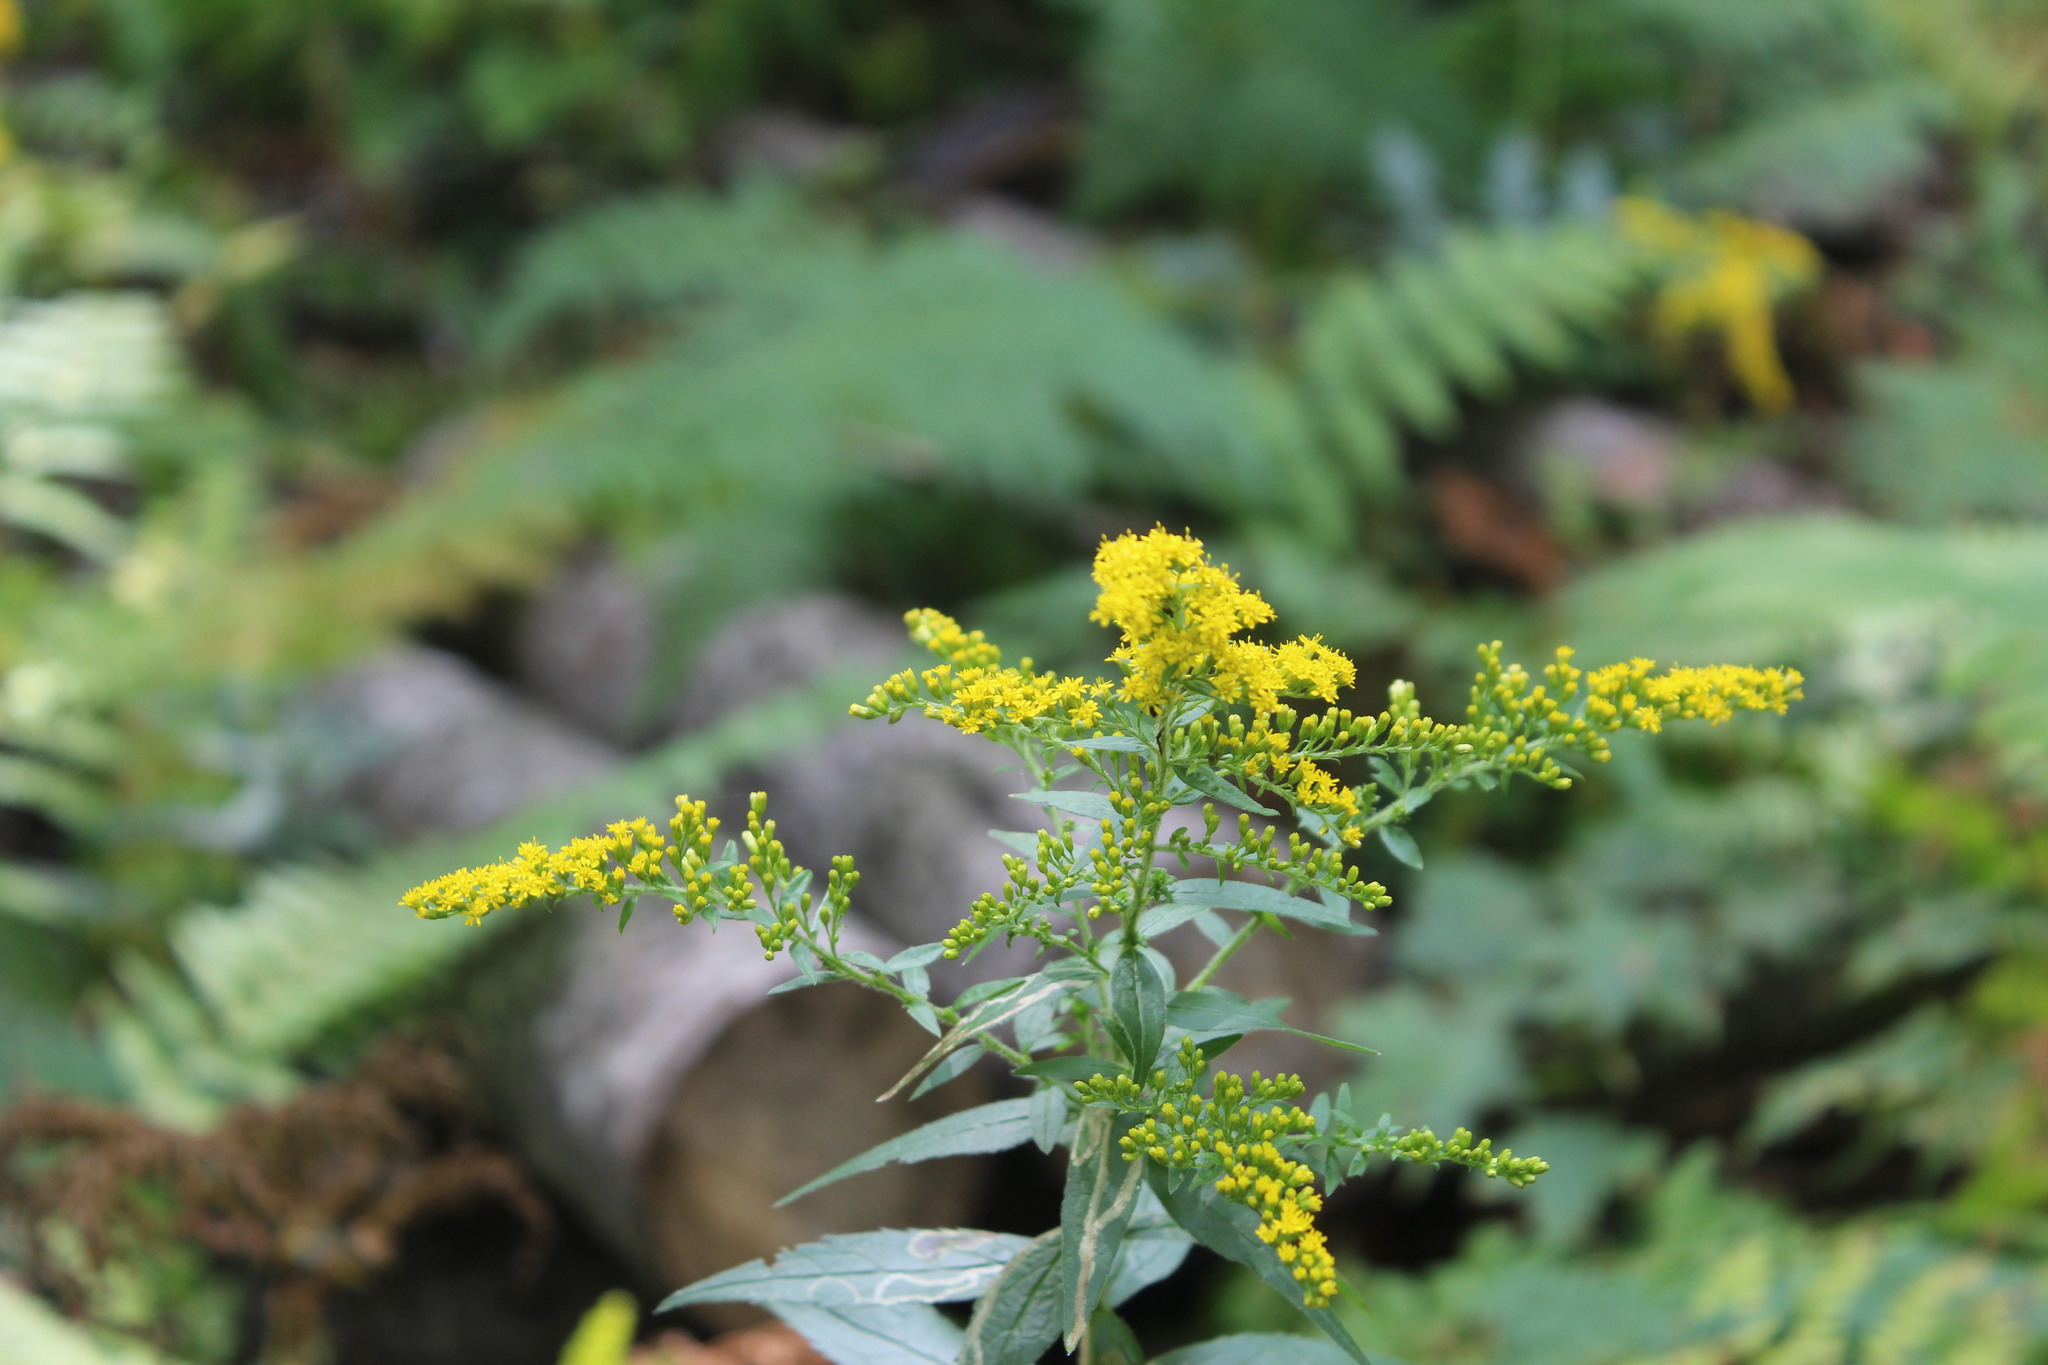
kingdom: Plantae
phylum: Tracheophyta
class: Magnoliopsida
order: Asterales
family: Asteraceae
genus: Solidago
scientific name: Solidago rugosa
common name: Rough-stemmed goldenrod
